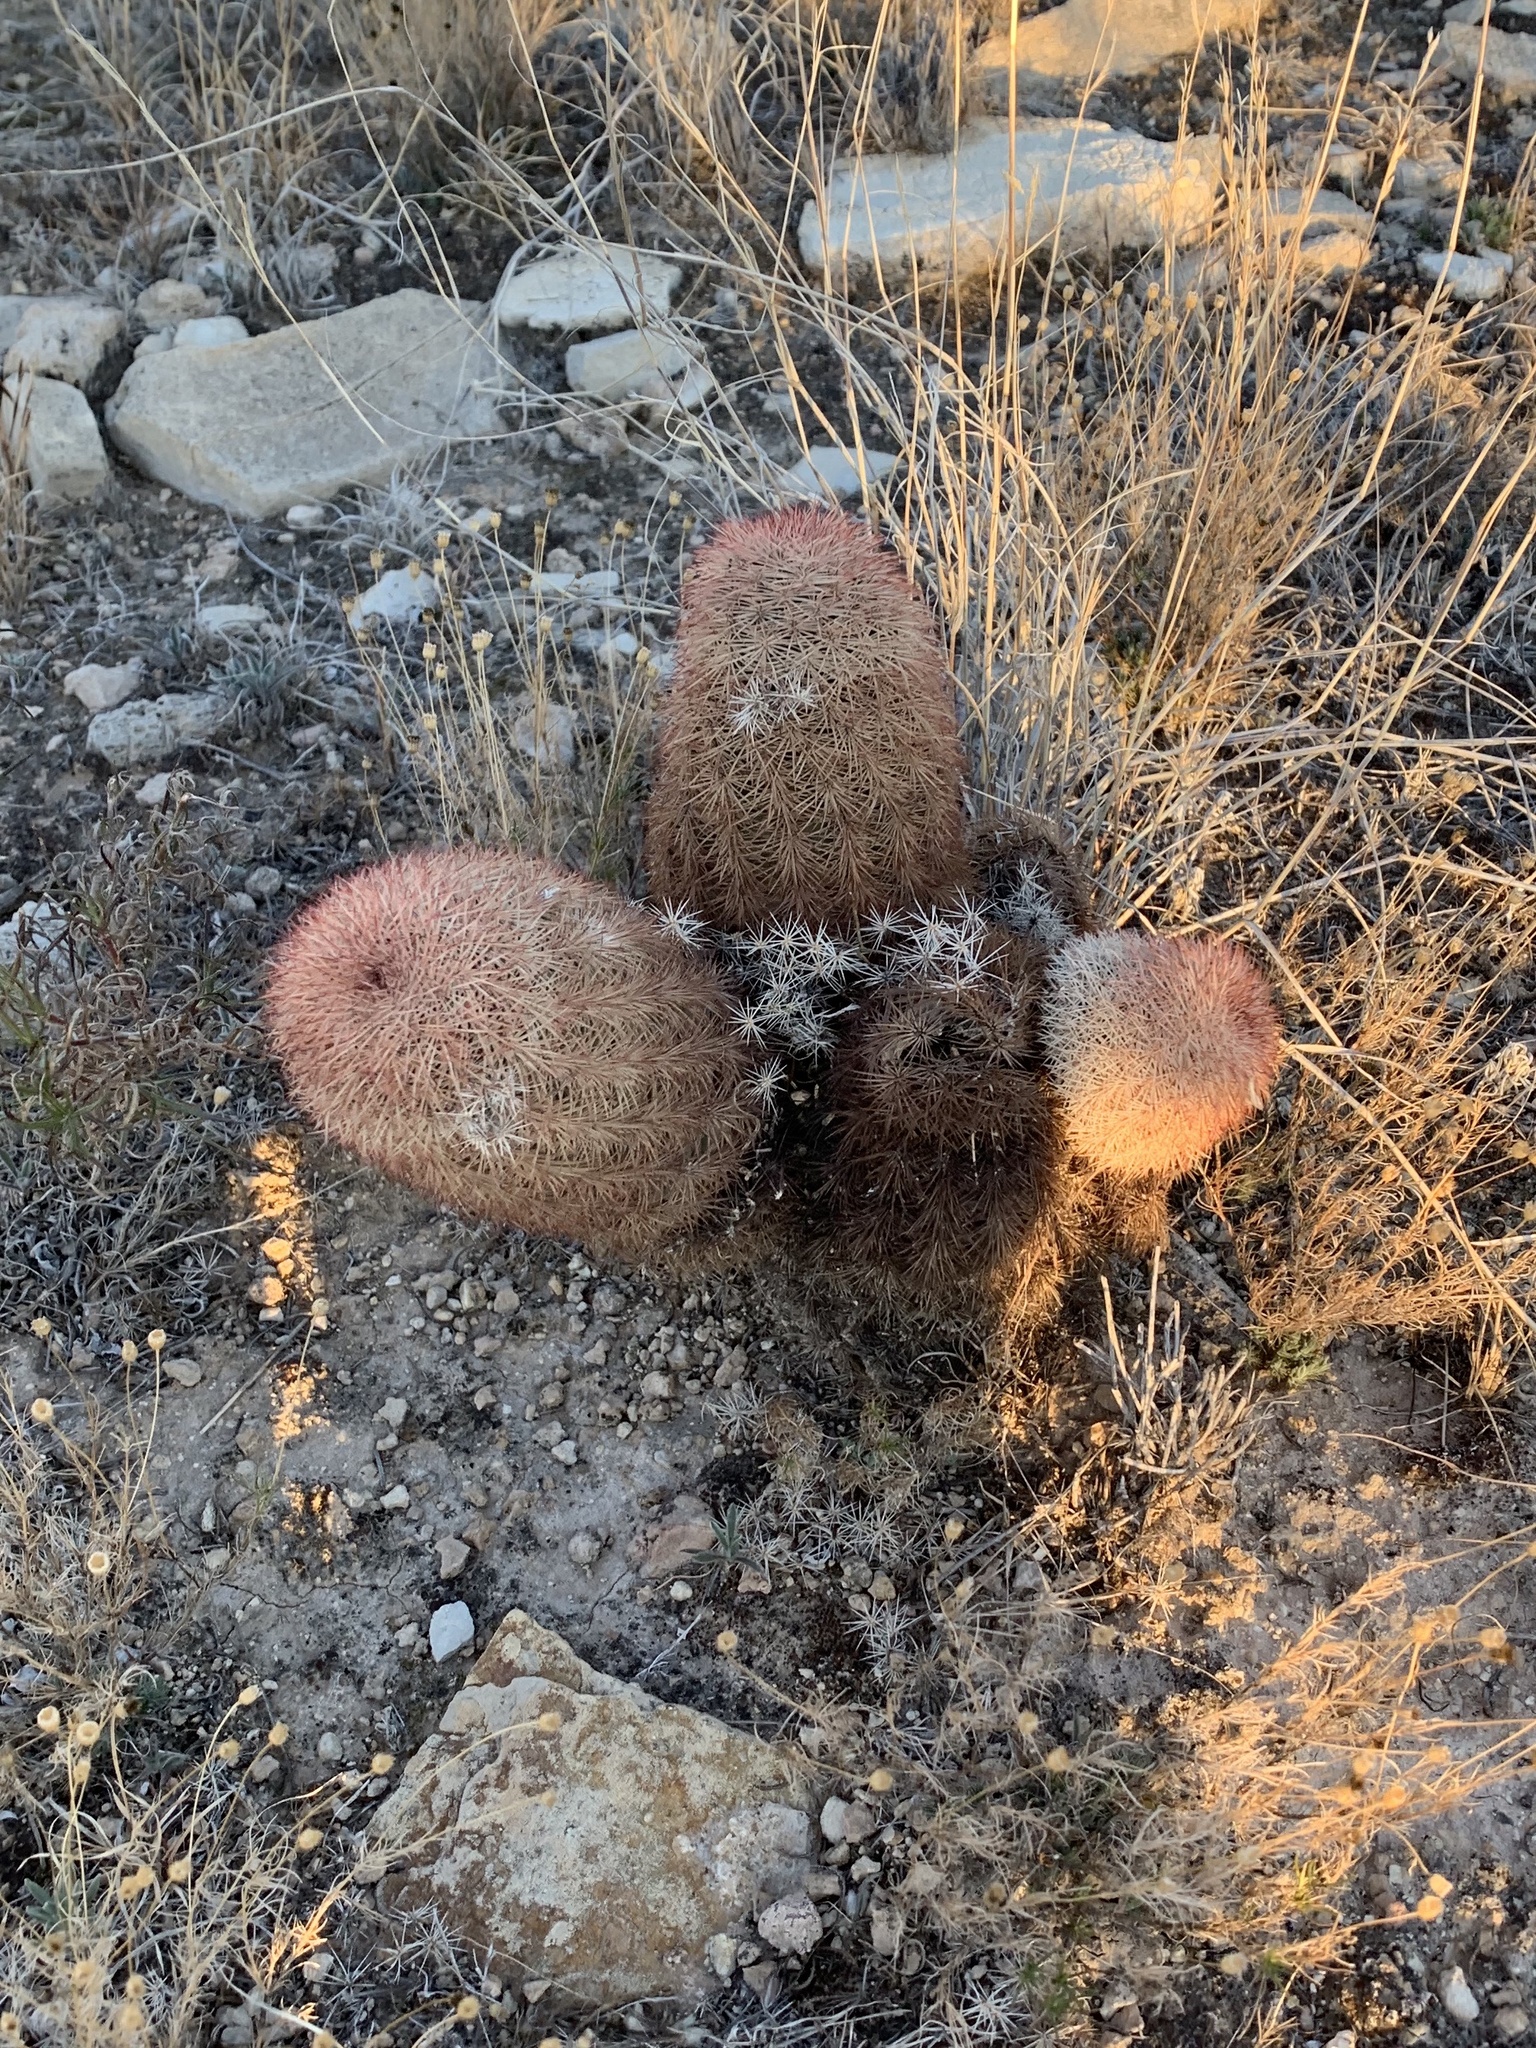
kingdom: Plantae
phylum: Tracheophyta
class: Magnoliopsida
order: Caryophyllales
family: Cactaceae
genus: Echinocereus
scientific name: Echinocereus dasyacanthus
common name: Spiny hedgehog cactus
